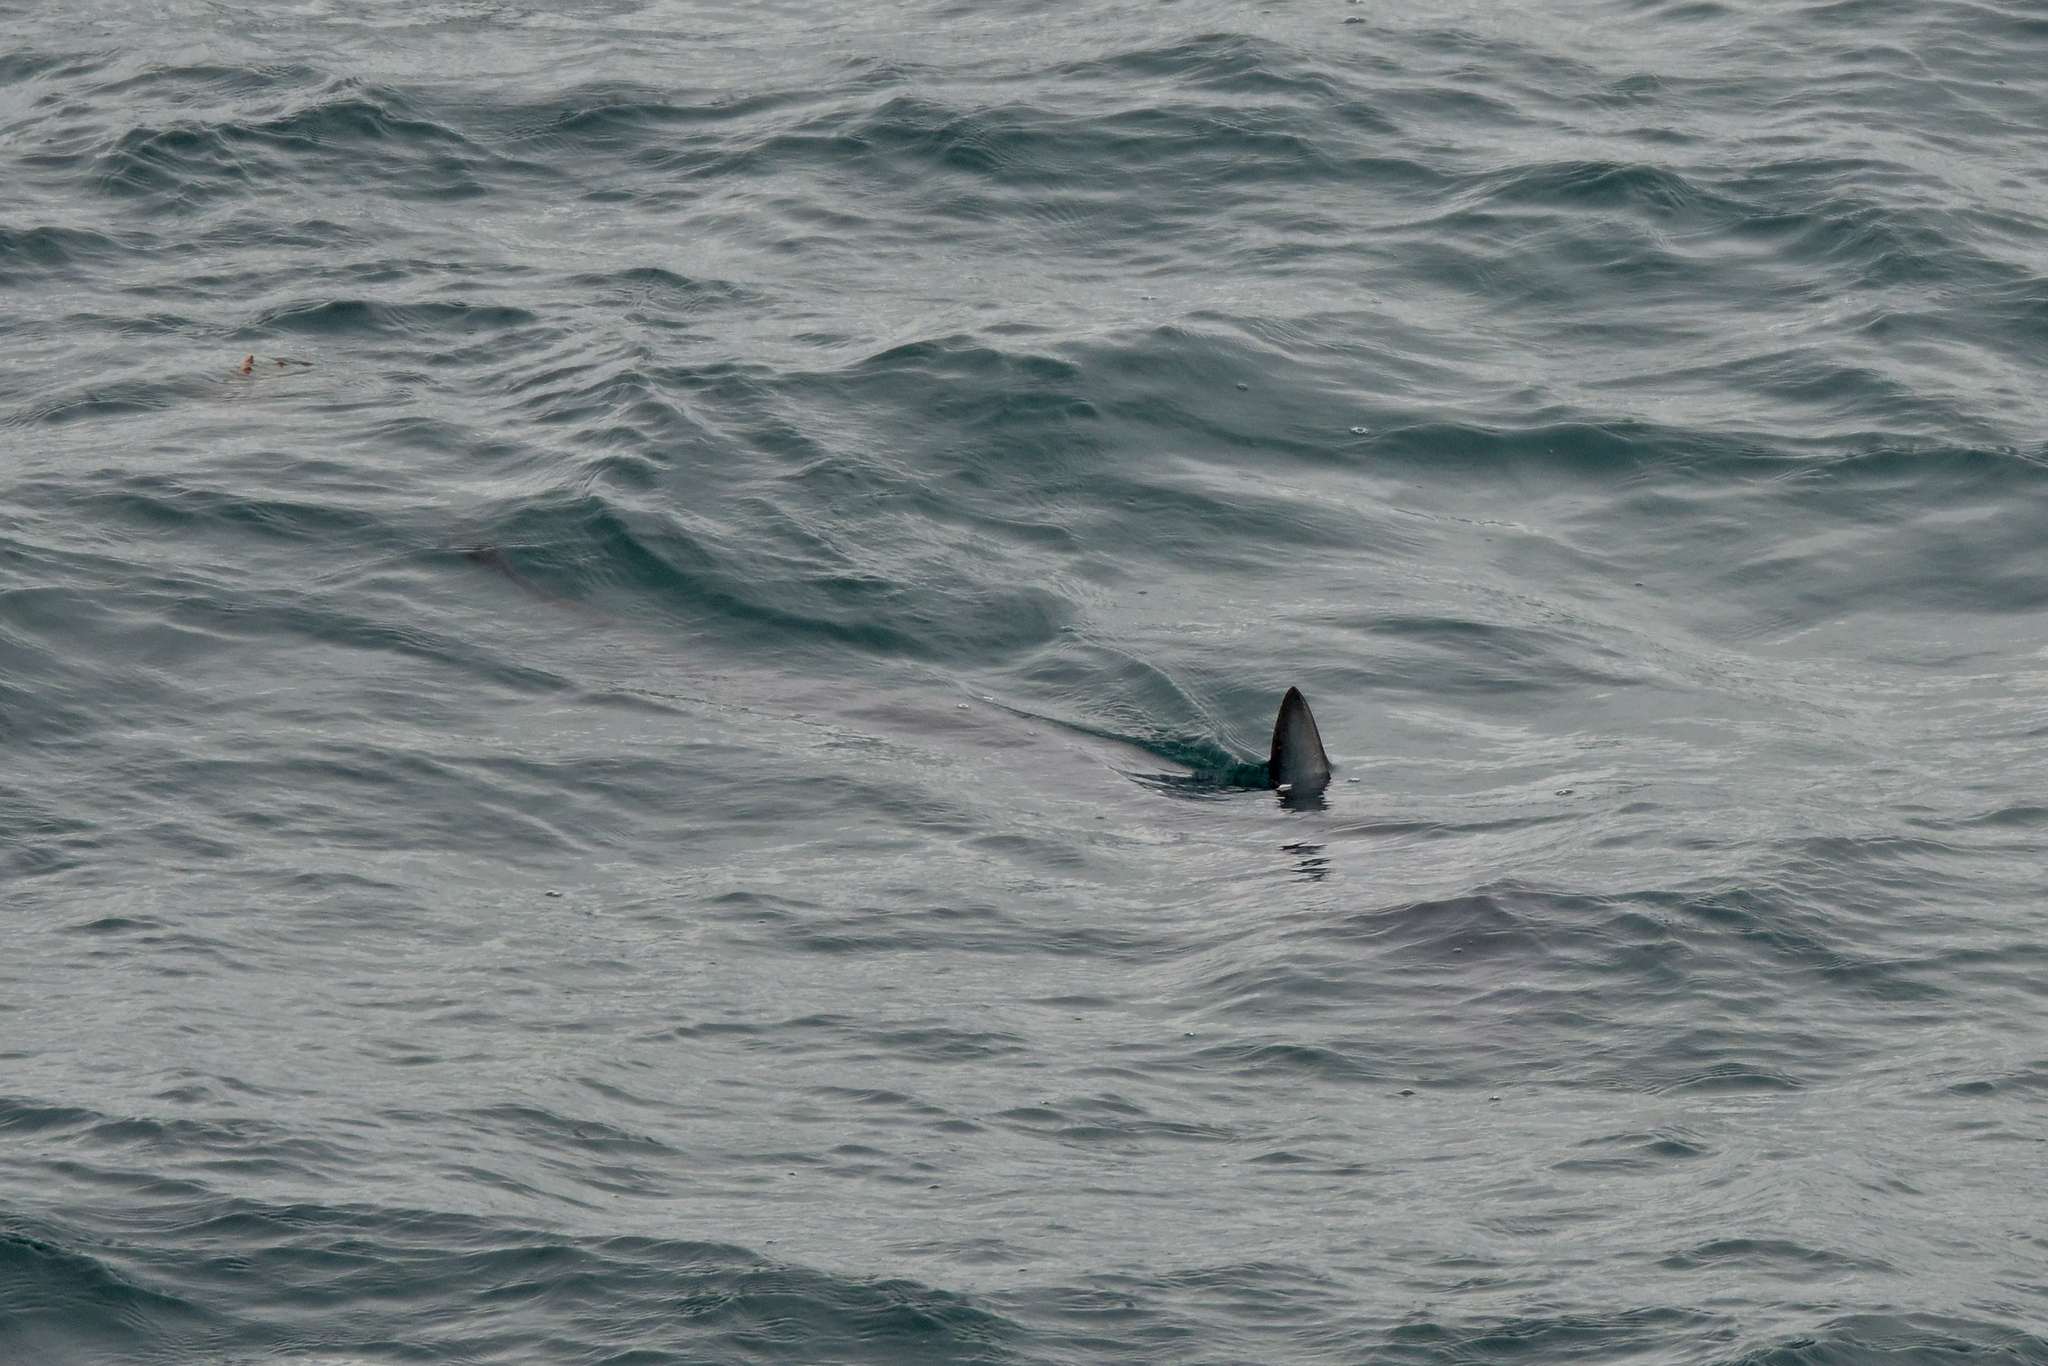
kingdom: Animalia
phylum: Chordata
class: Elasmobranchii
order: Lamniformes
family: Alopiidae
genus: Alopias
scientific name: Alopias vulpinus
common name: Thresher shark
